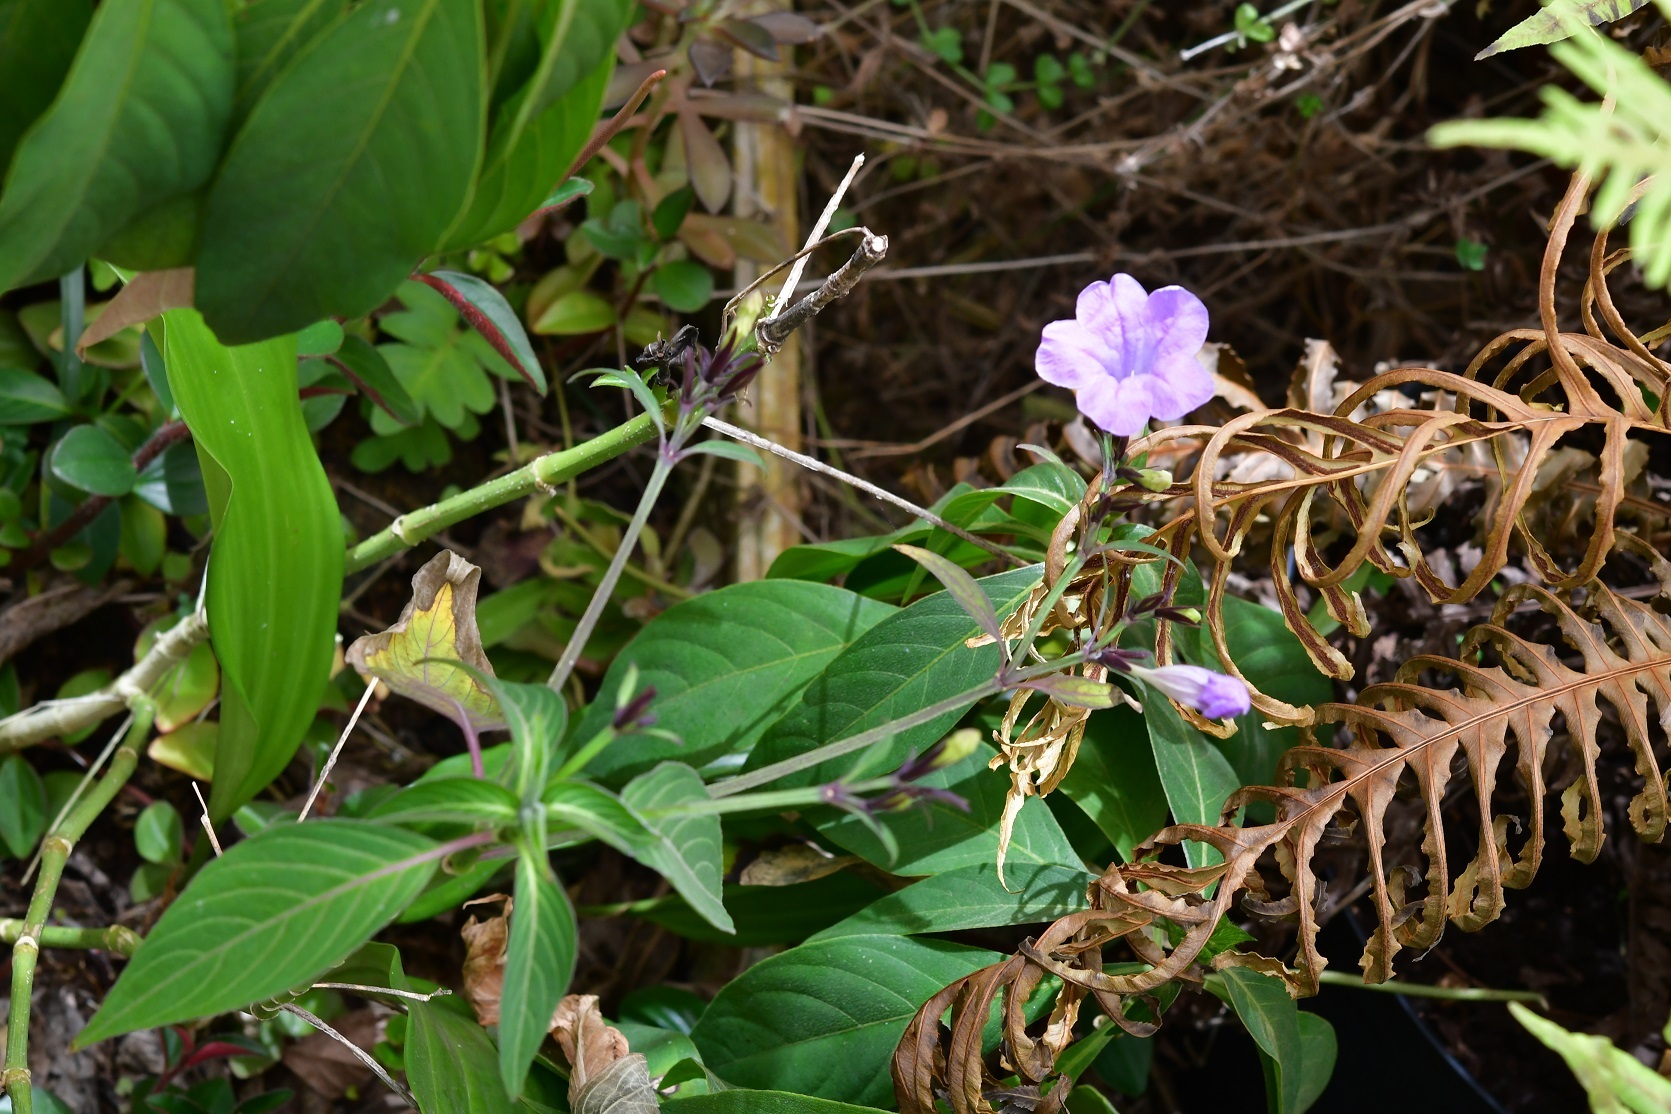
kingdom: Plantae
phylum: Tracheophyta
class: Magnoliopsida
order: Lamiales
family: Acanthaceae
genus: Ruellia
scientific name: Ruellia breedlovei
